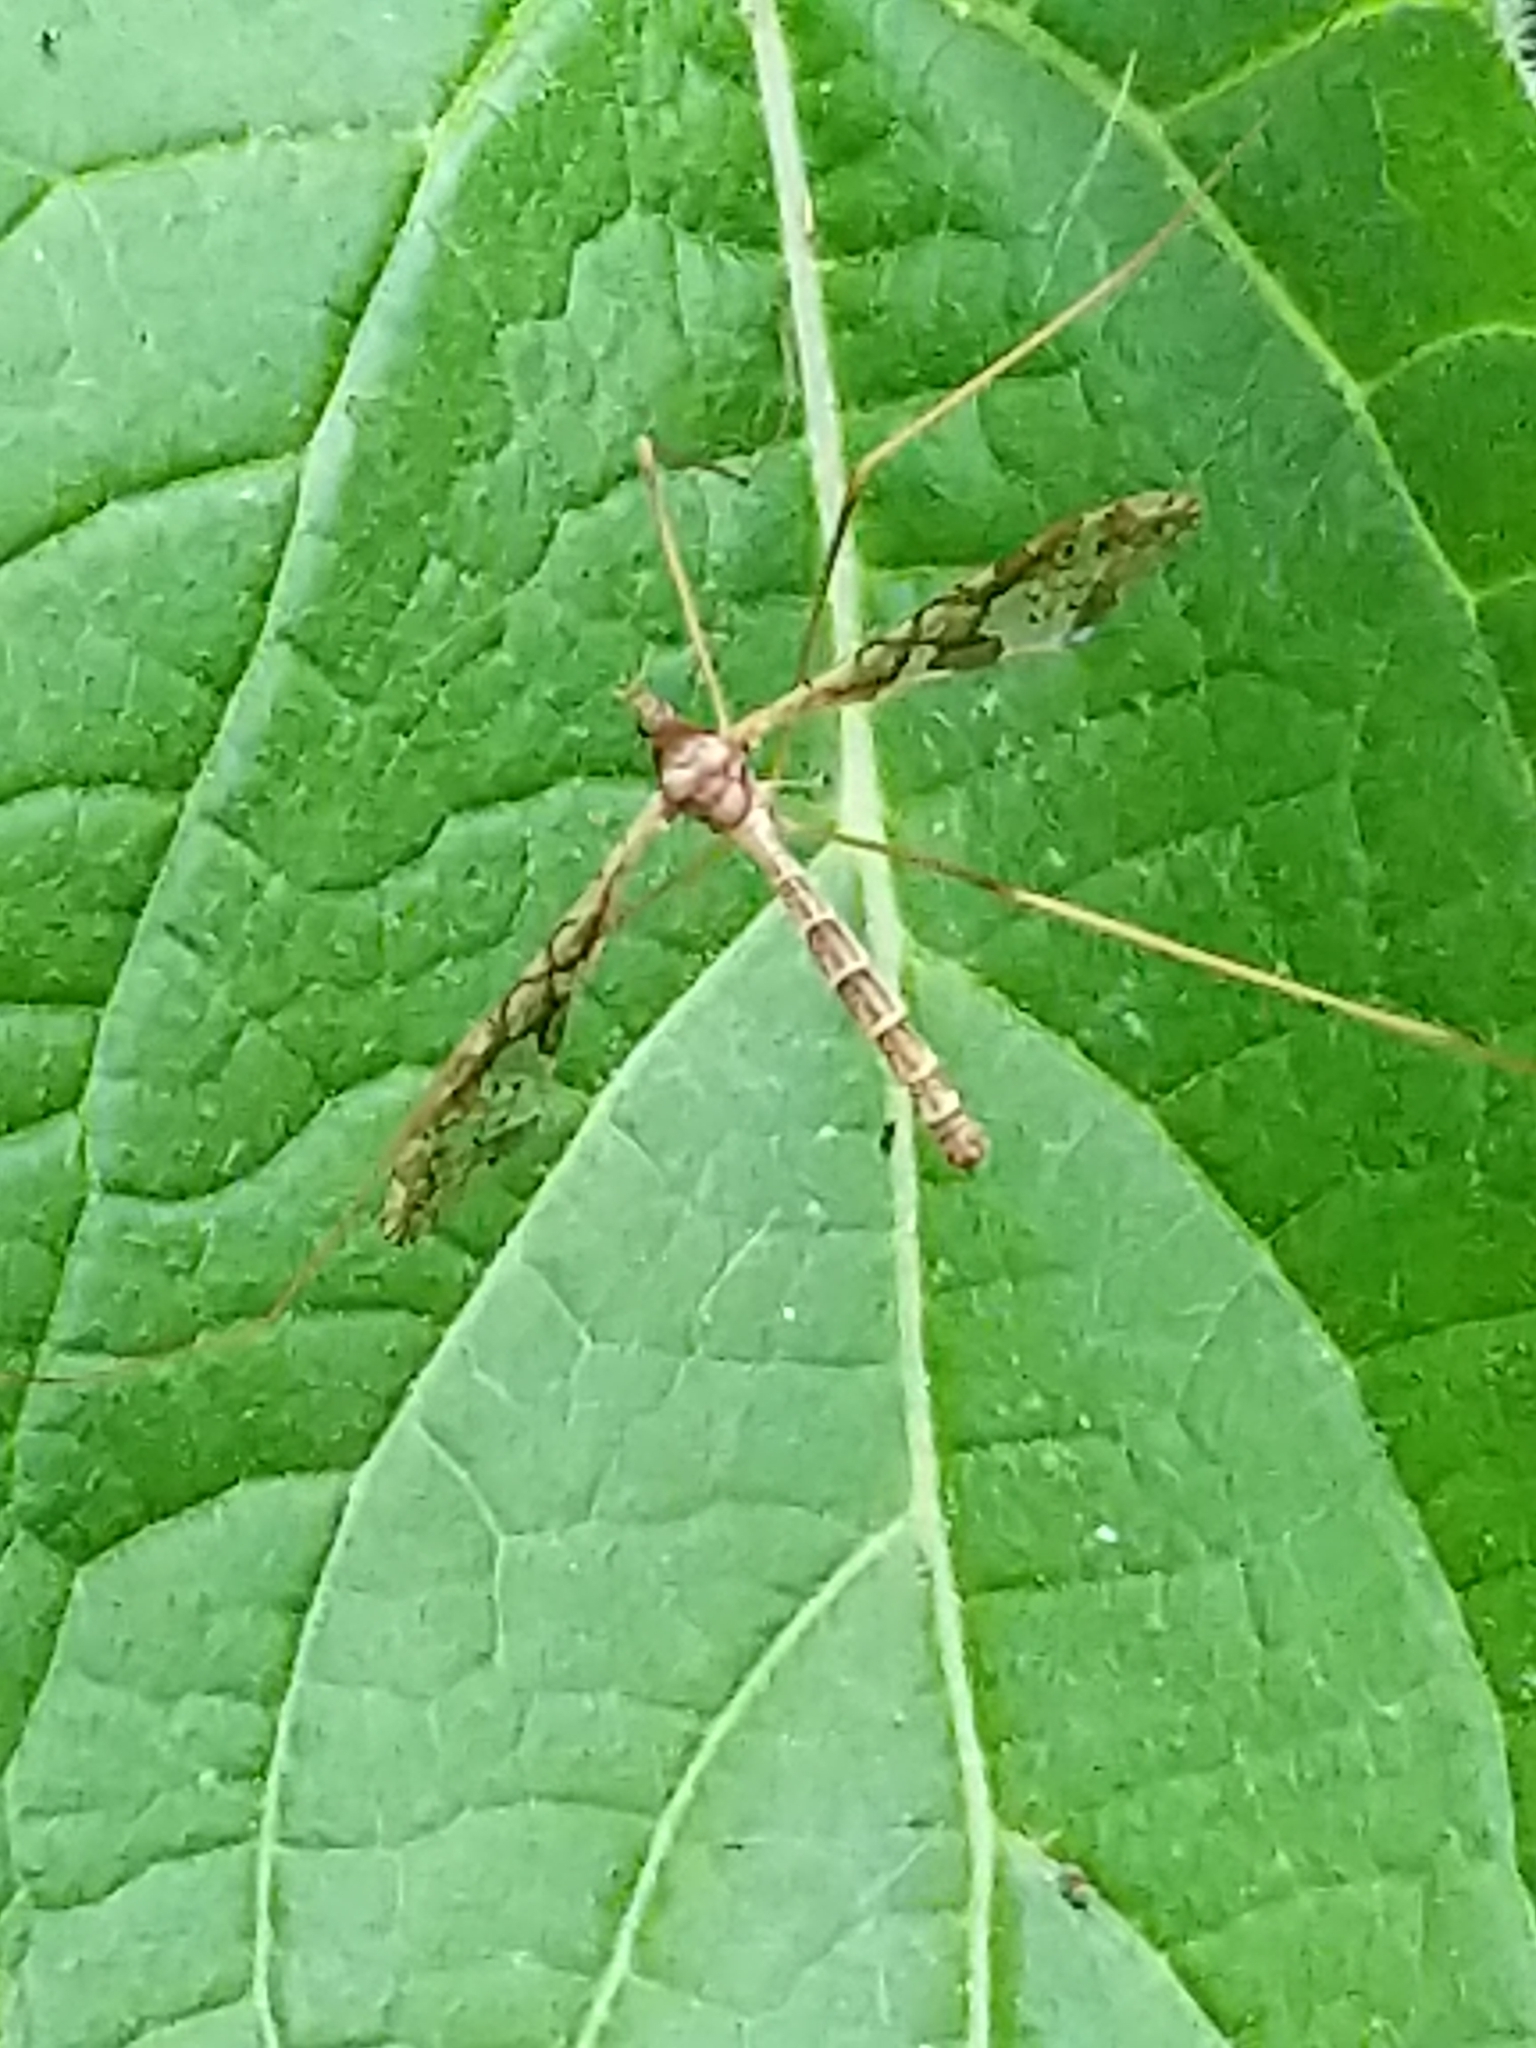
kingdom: Animalia
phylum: Arthropoda
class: Insecta
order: Diptera
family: Limoniidae
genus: Epiphragma
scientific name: Epiphragma solatrix
